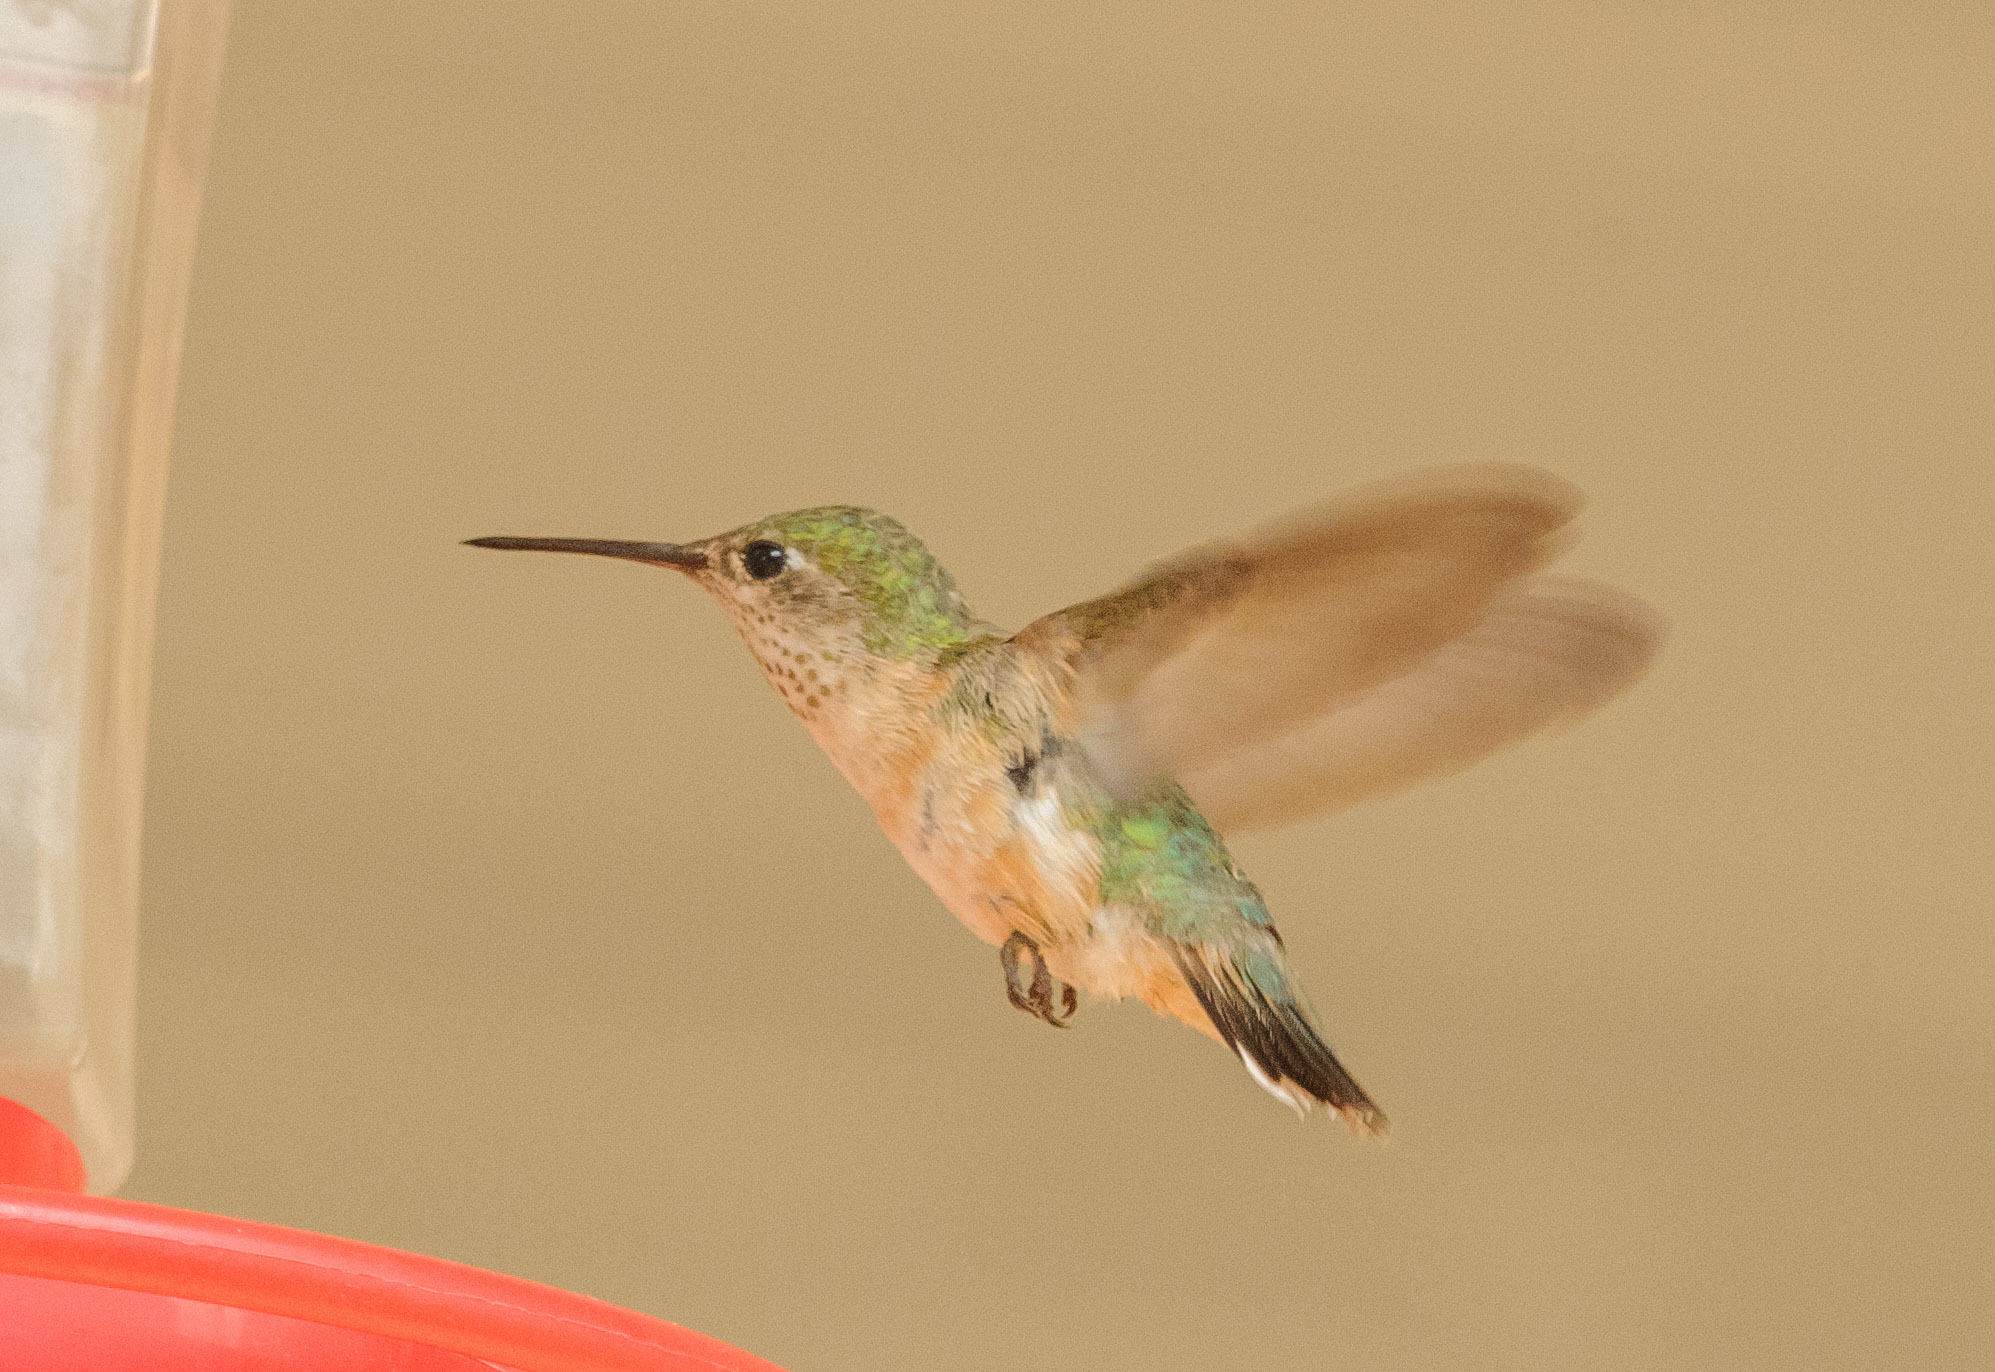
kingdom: Animalia
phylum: Chordata
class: Aves
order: Apodiformes
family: Trochilidae
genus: Selasphorus
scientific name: Selasphorus rufus
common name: Rufous hummingbird
